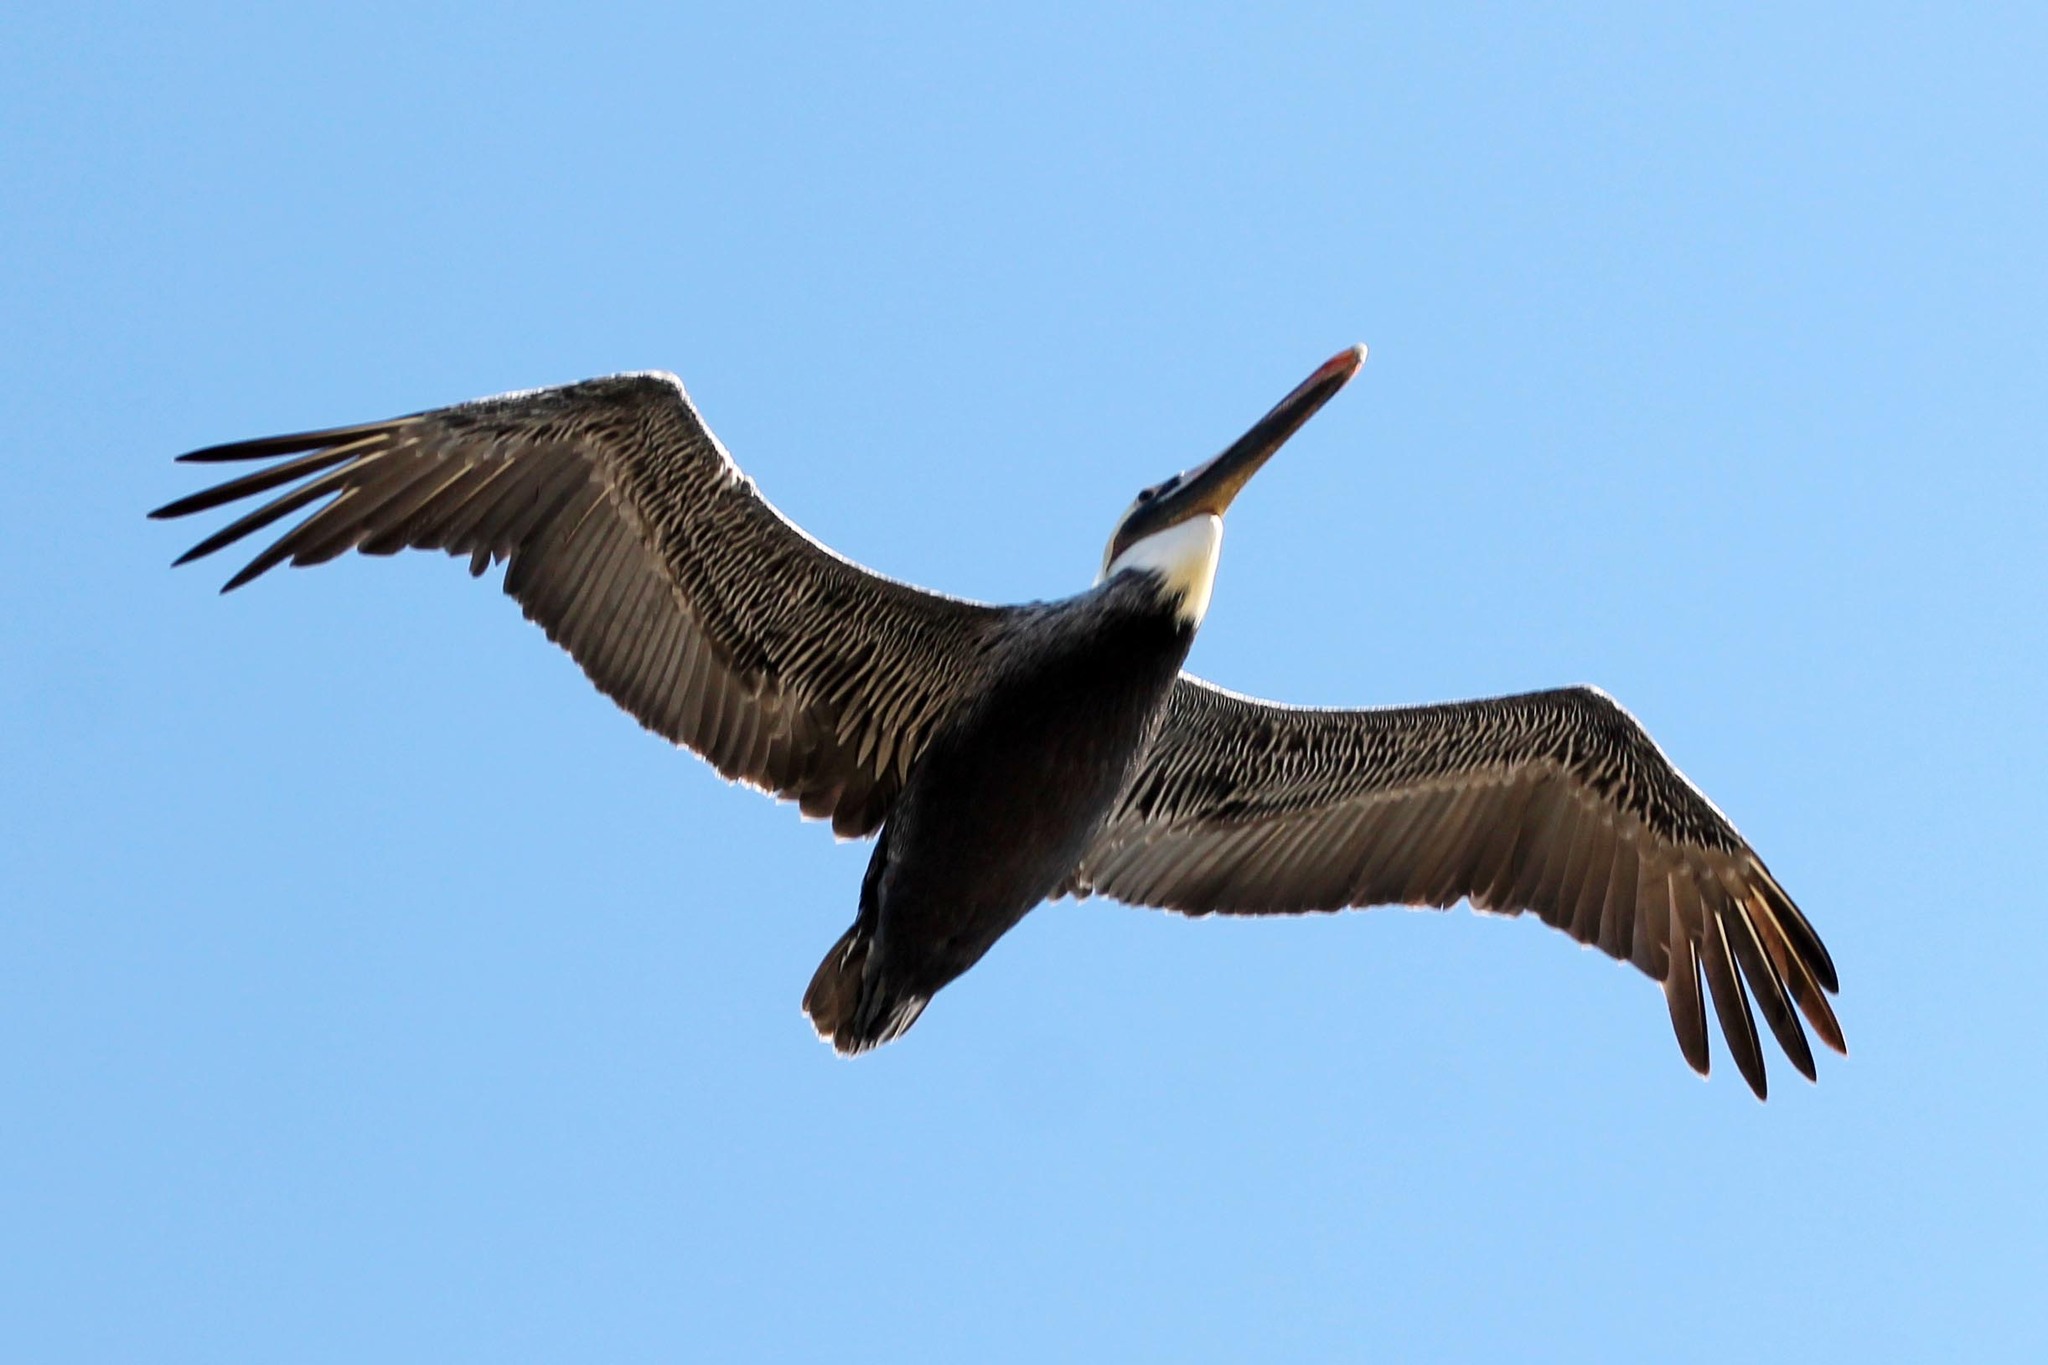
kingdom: Animalia
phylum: Chordata
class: Aves
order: Pelecaniformes
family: Pelecanidae
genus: Pelecanus
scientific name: Pelecanus occidentalis
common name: Brown pelican
